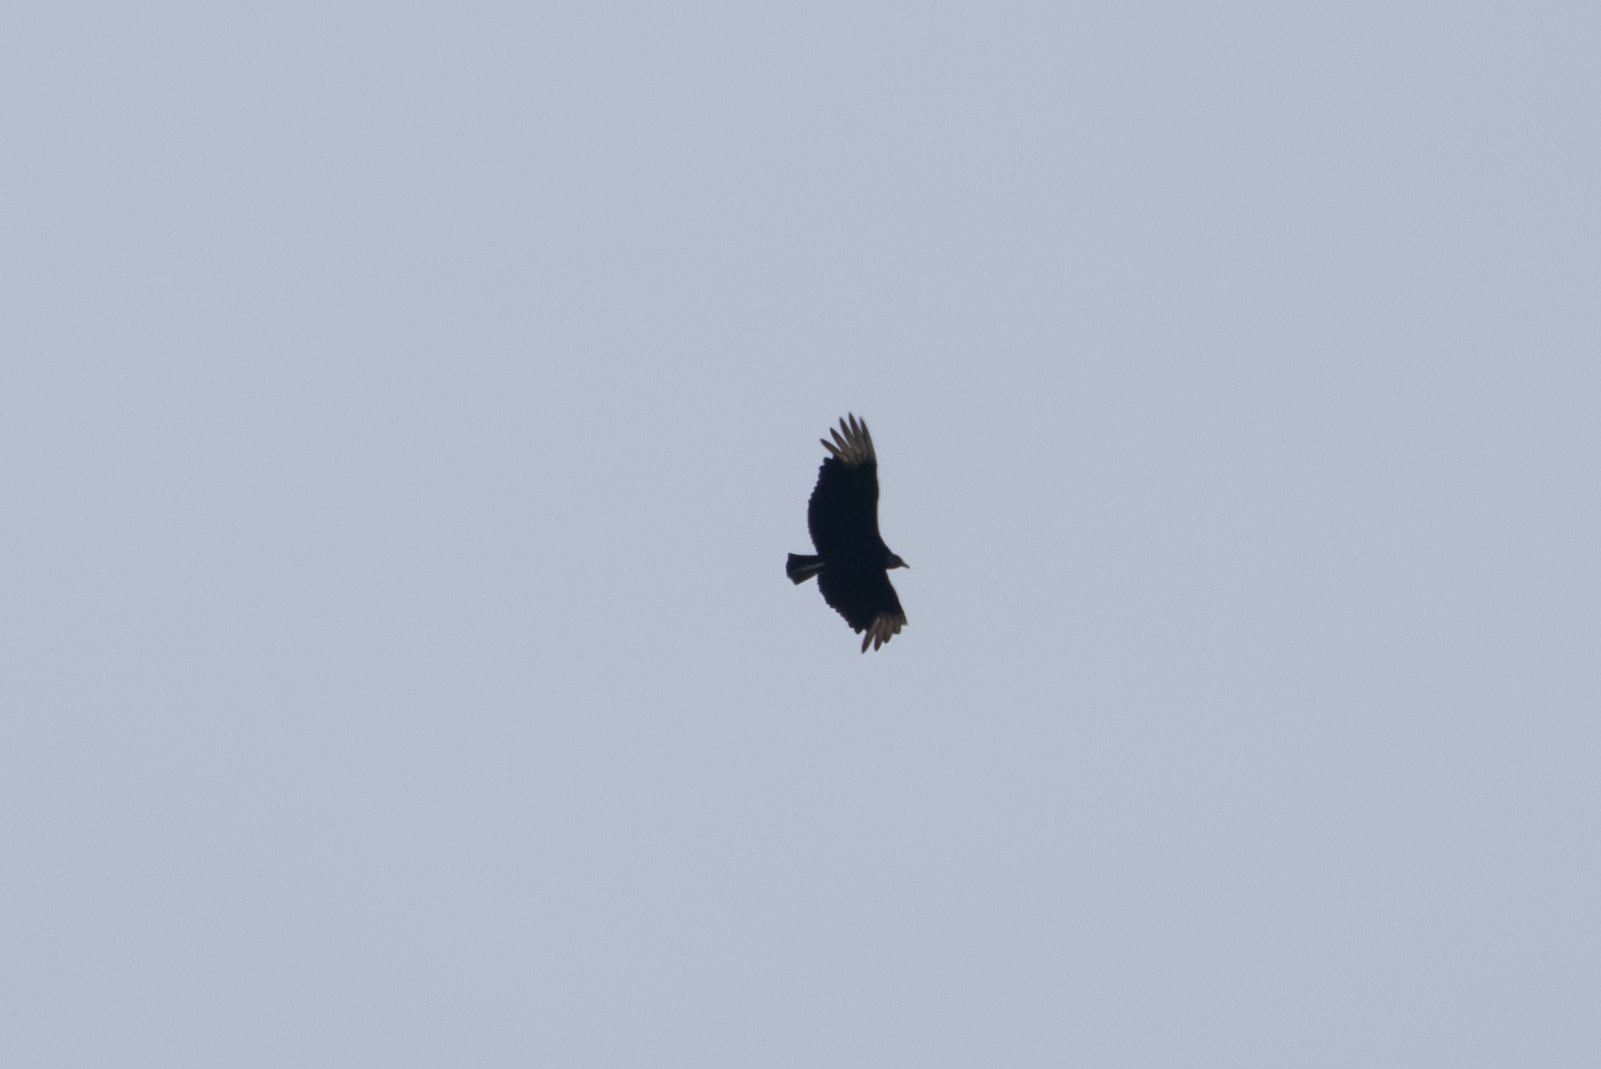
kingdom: Animalia
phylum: Chordata
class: Aves
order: Accipitriformes
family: Cathartidae
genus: Coragyps
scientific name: Coragyps atratus
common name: Black vulture
